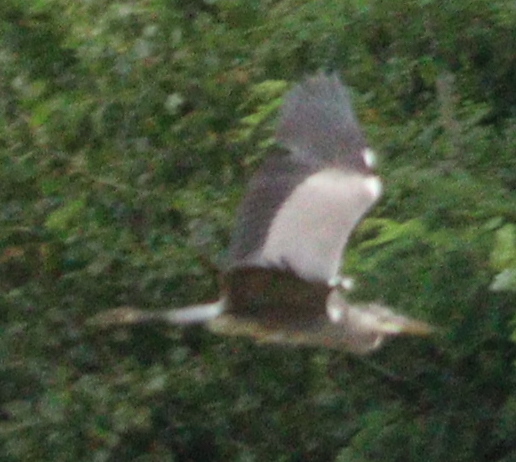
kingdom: Animalia
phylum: Chordata
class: Aves
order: Pelecaniformes
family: Ardeidae
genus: Ardea
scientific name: Ardea cinerea
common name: Grey heron
